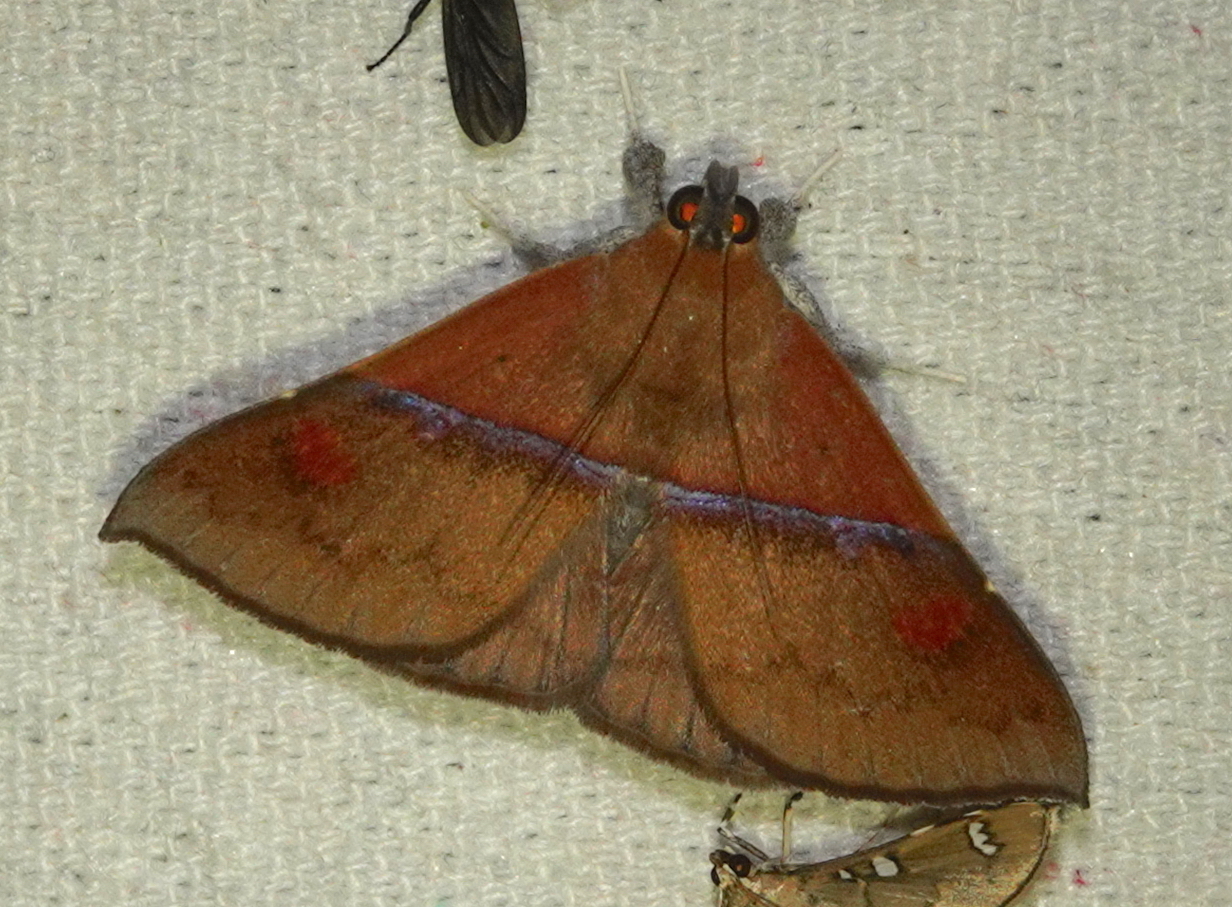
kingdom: Animalia
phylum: Arthropoda
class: Insecta
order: Lepidoptera
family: Erebidae
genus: Sympis
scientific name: Sympis rufibasis
